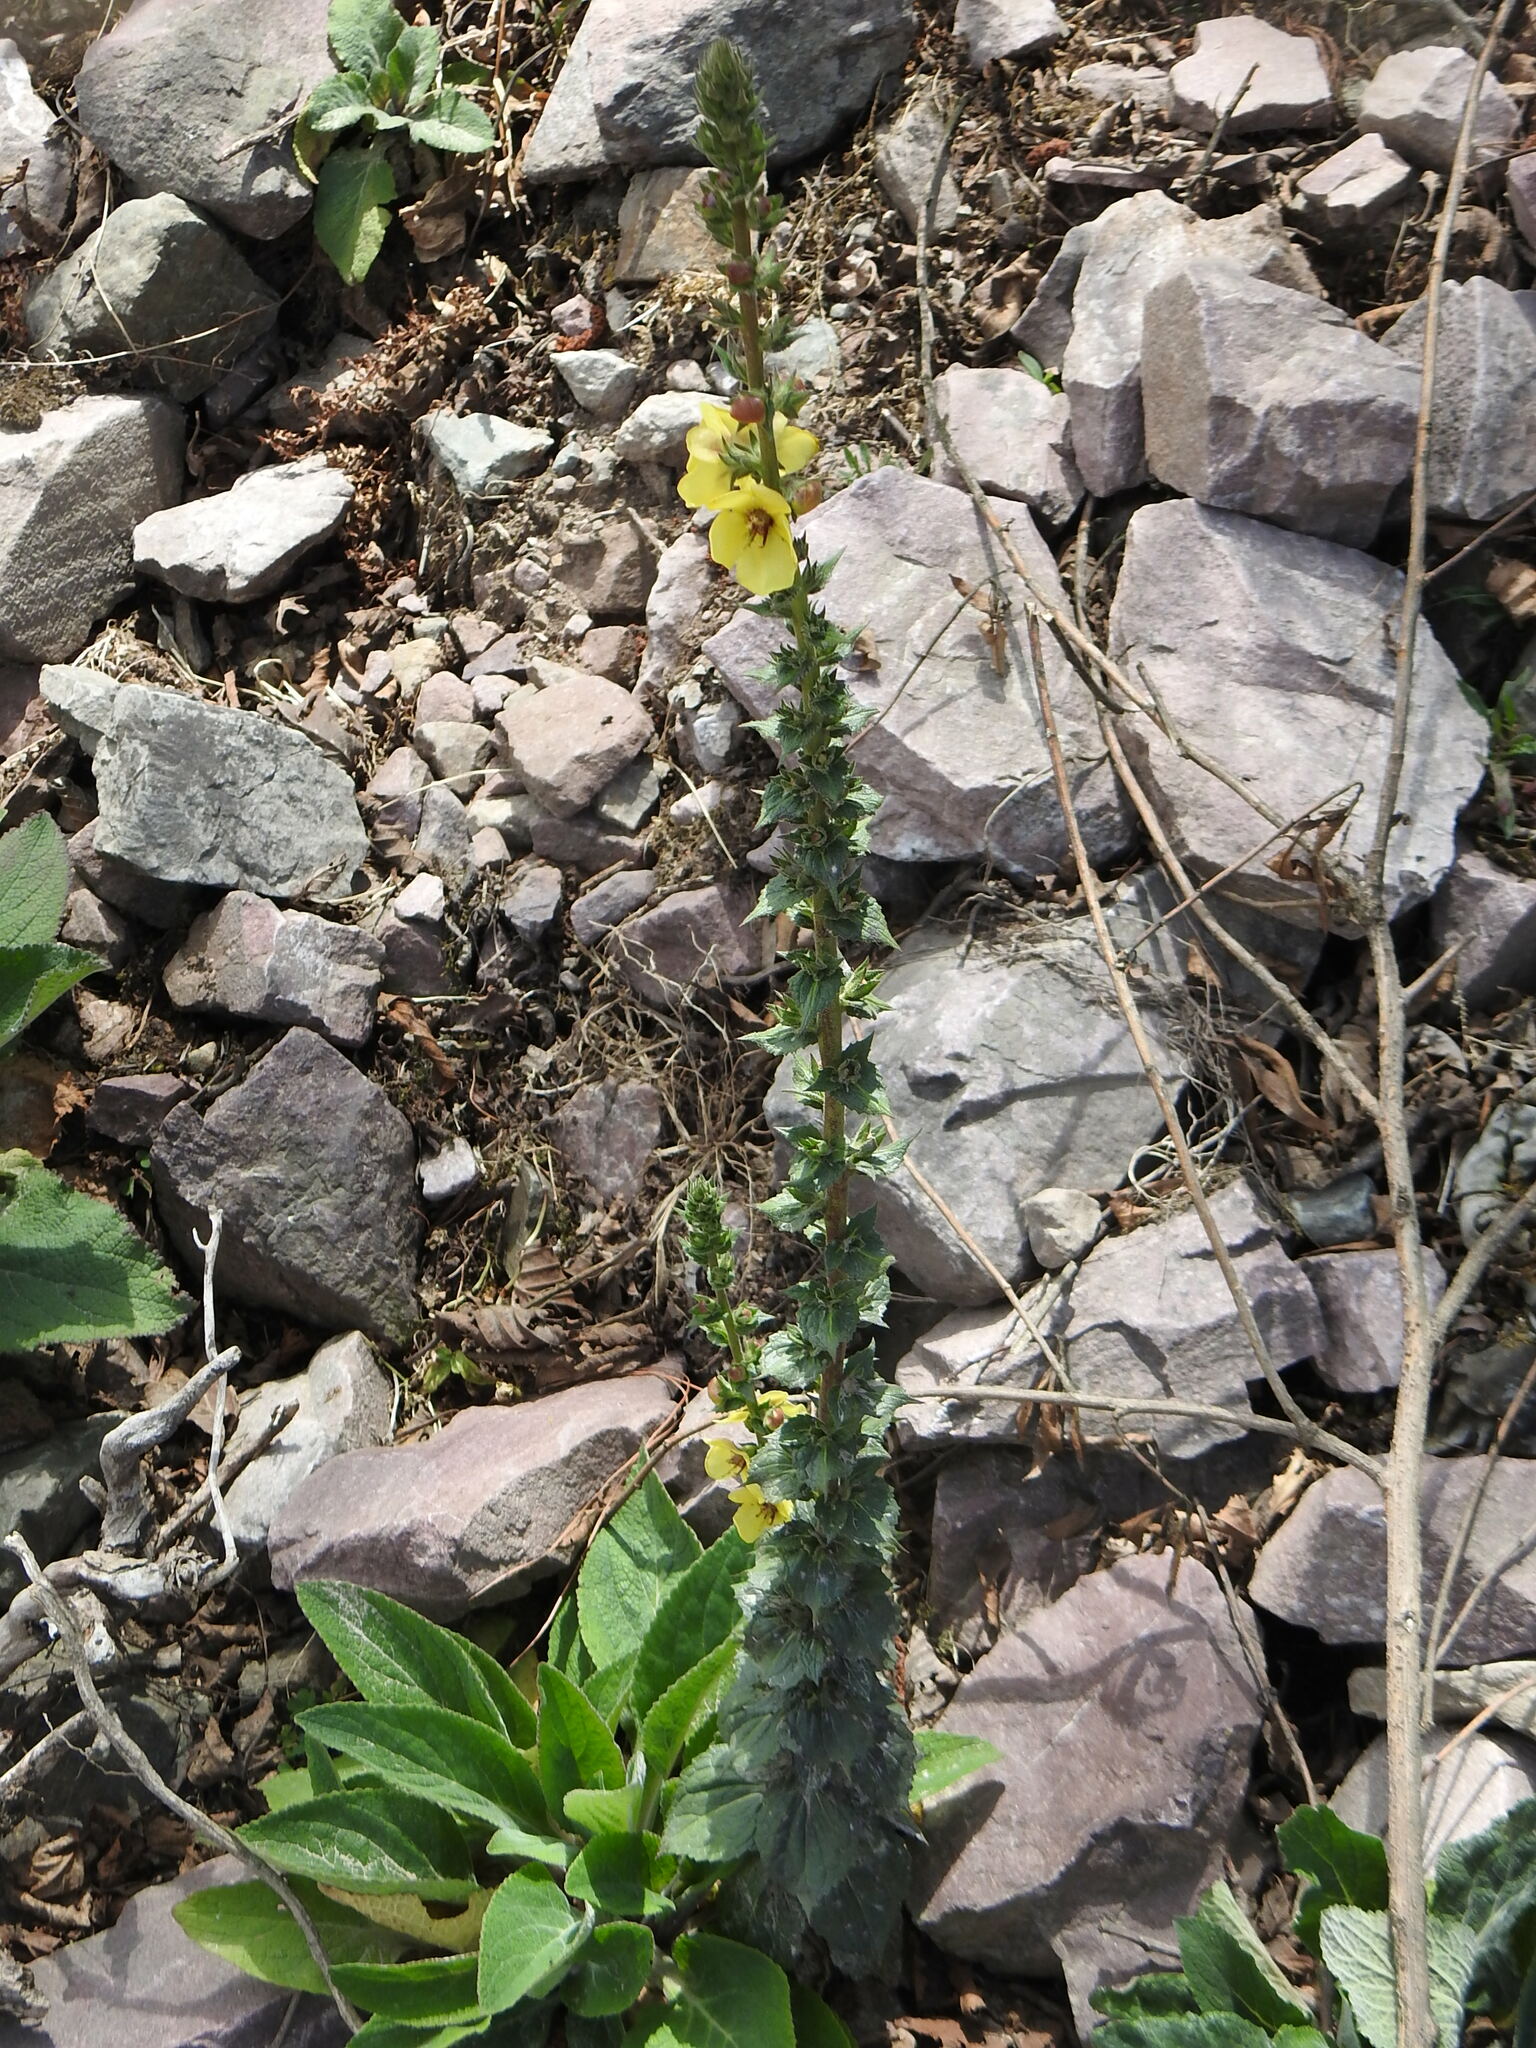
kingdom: Plantae
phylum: Tracheophyta
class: Magnoliopsida
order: Lamiales
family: Scrophulariaceae
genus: Verbascum
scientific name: Verbascum virgatum
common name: Twiggy mullein
